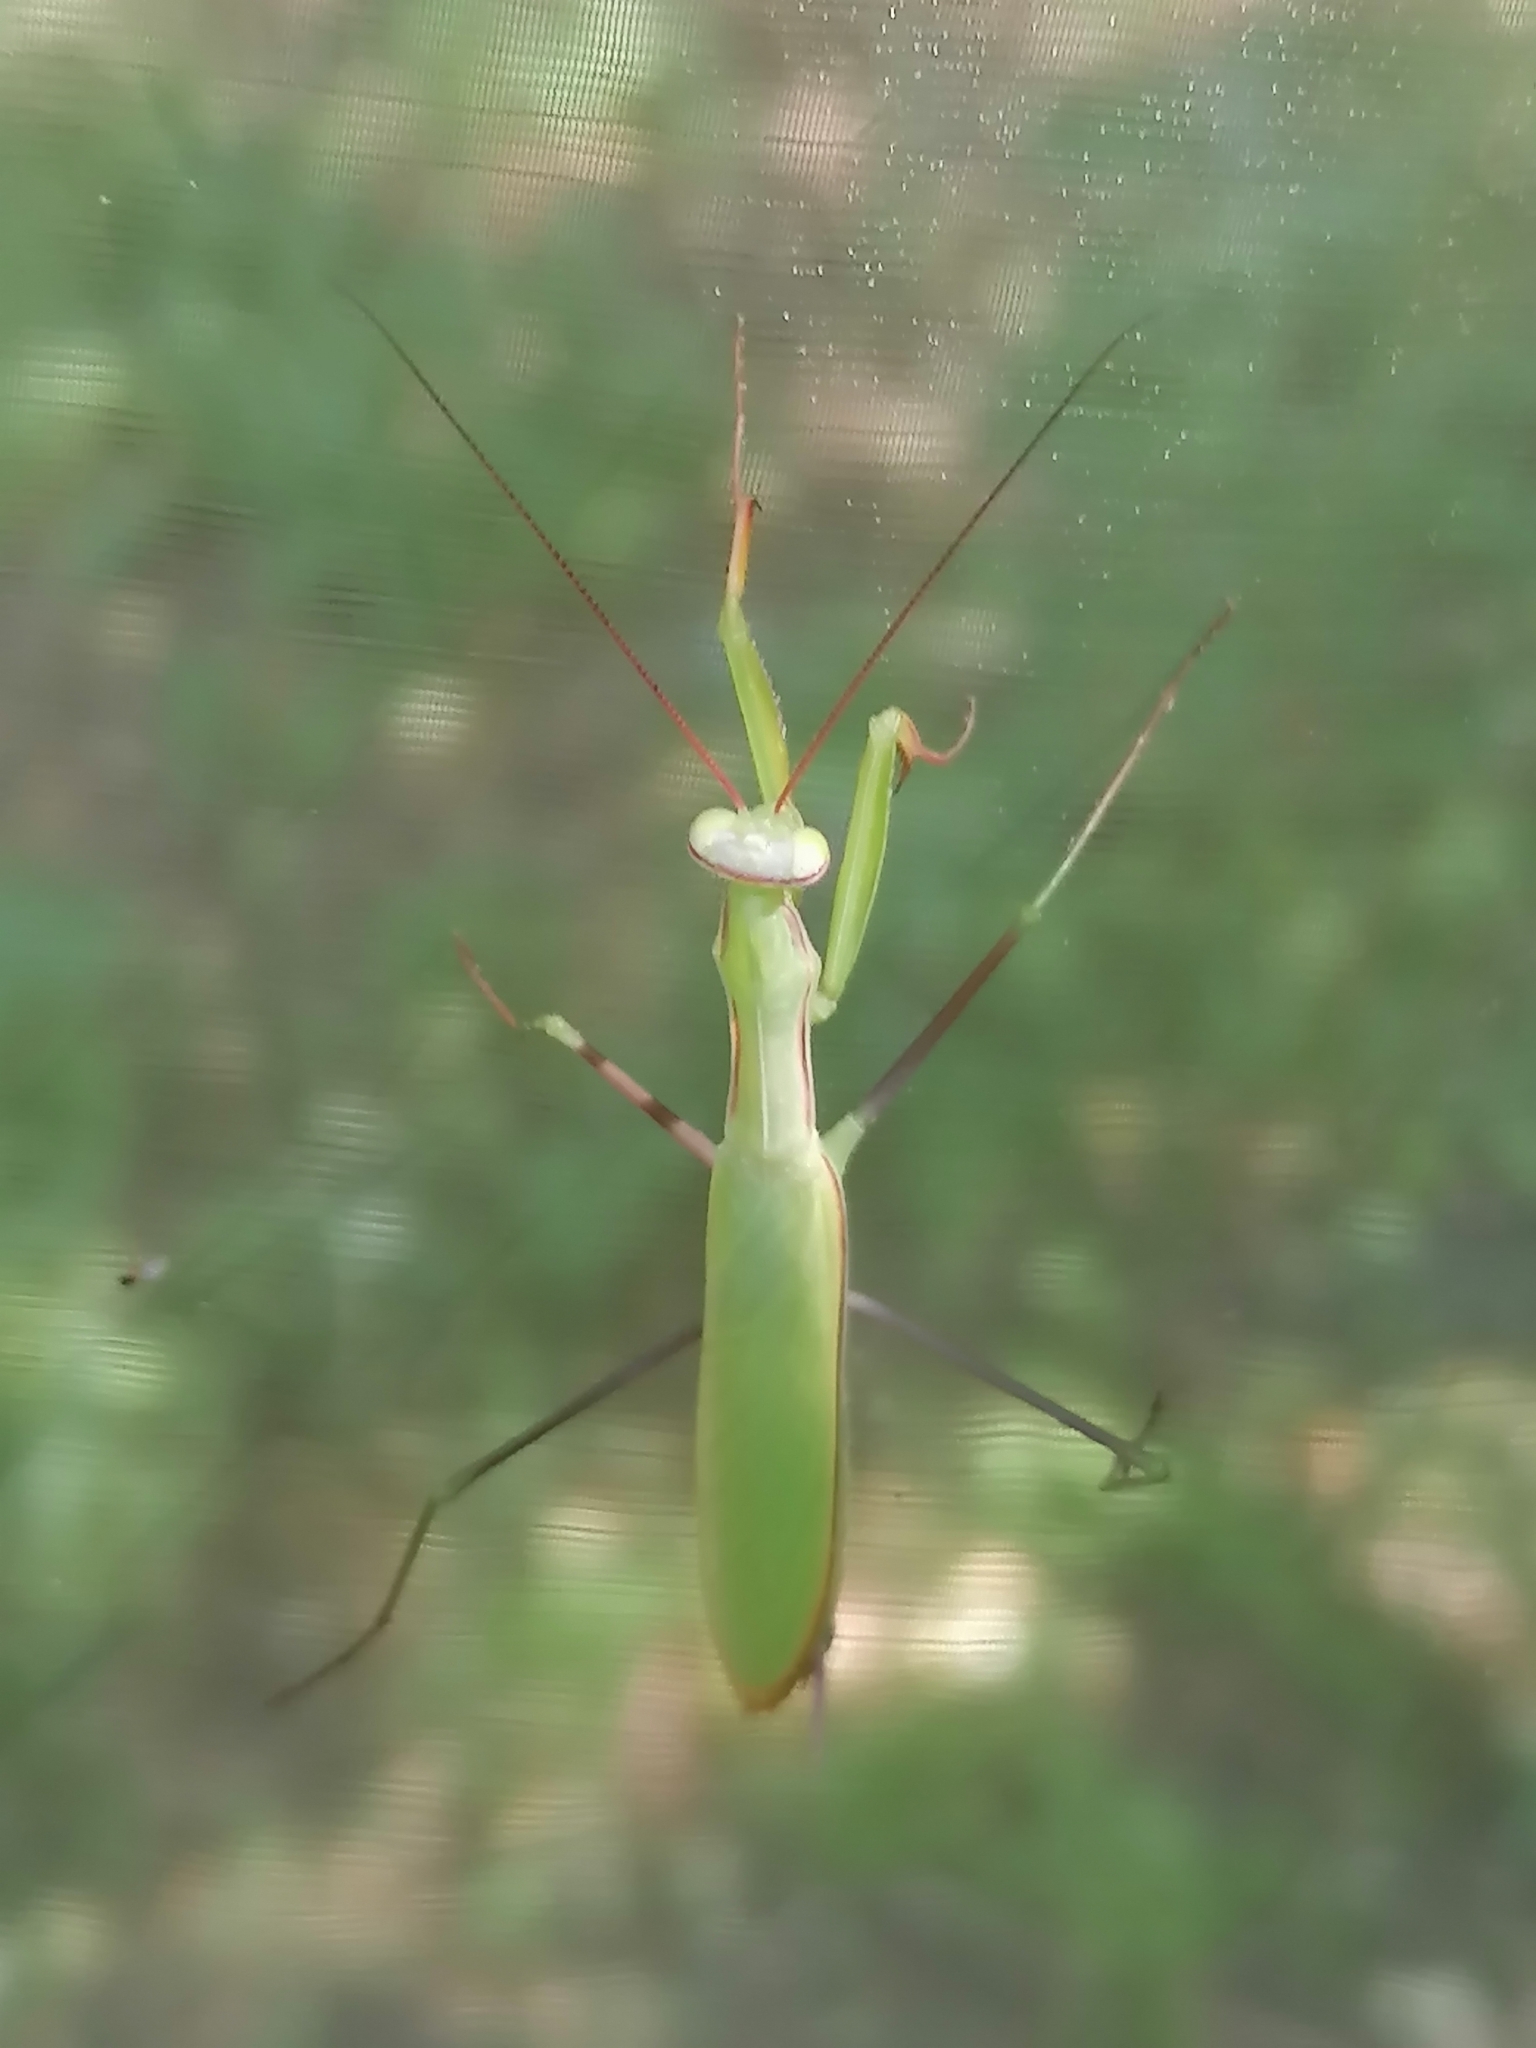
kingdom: Animalia
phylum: Arthropoda
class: Insecta
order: Mantodea
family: Mantidae
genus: Mantis
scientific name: Mantis religiosa
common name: Praying mantis
